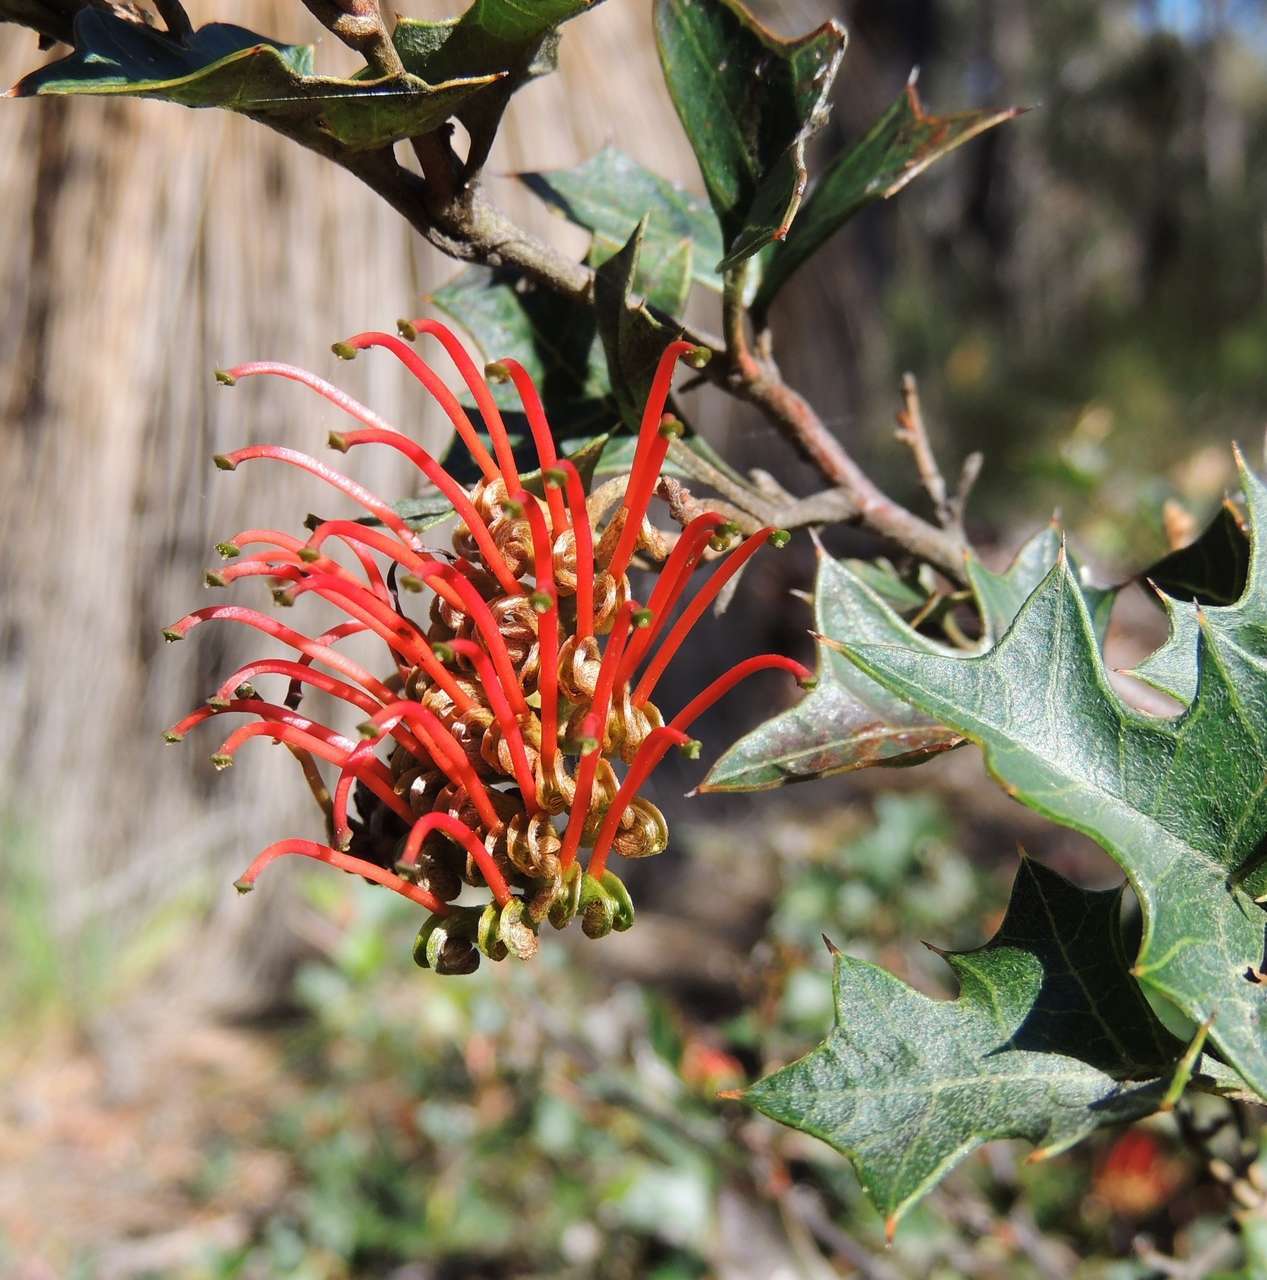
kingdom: Plantae
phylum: Tracheophyta
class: Magnoliopsida
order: Proteales
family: Proteaceae
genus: Grevillea
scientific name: Grevillea steiglitziana
